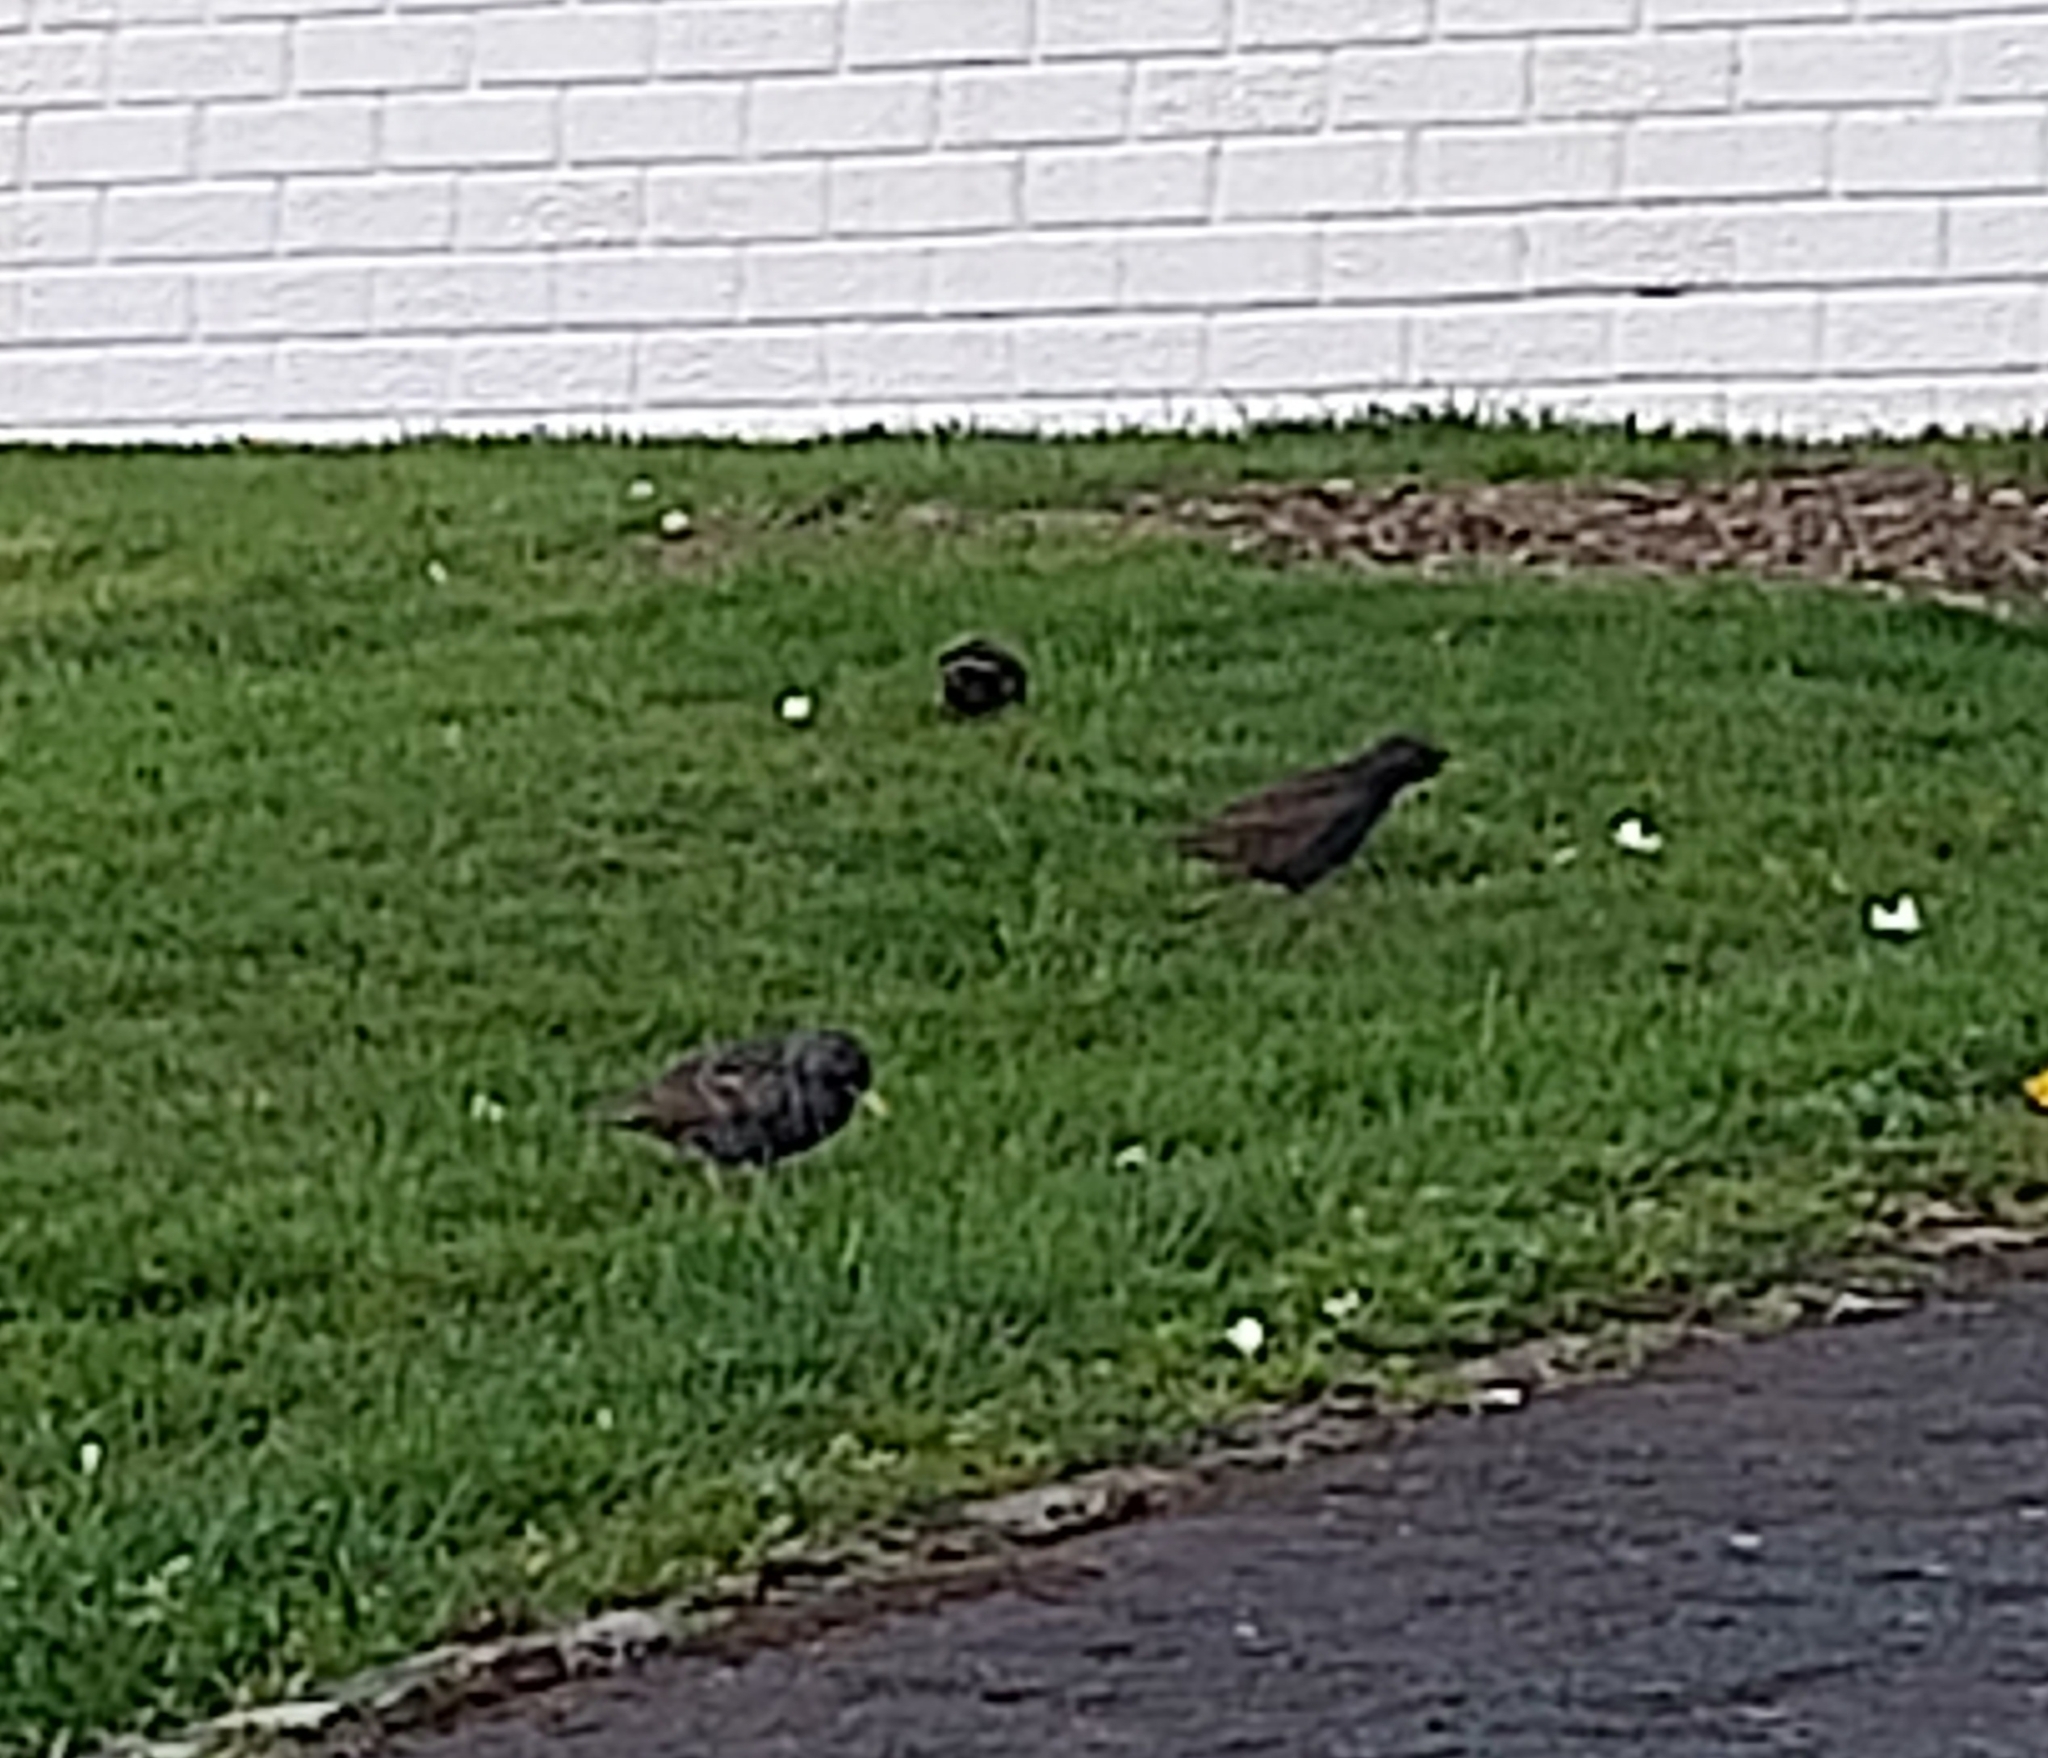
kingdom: Animalia
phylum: Chordata
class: Aves
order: Passeriformes
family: Sturnidae
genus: Sturnus
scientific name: Sturnus vulgaris
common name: Common starling
